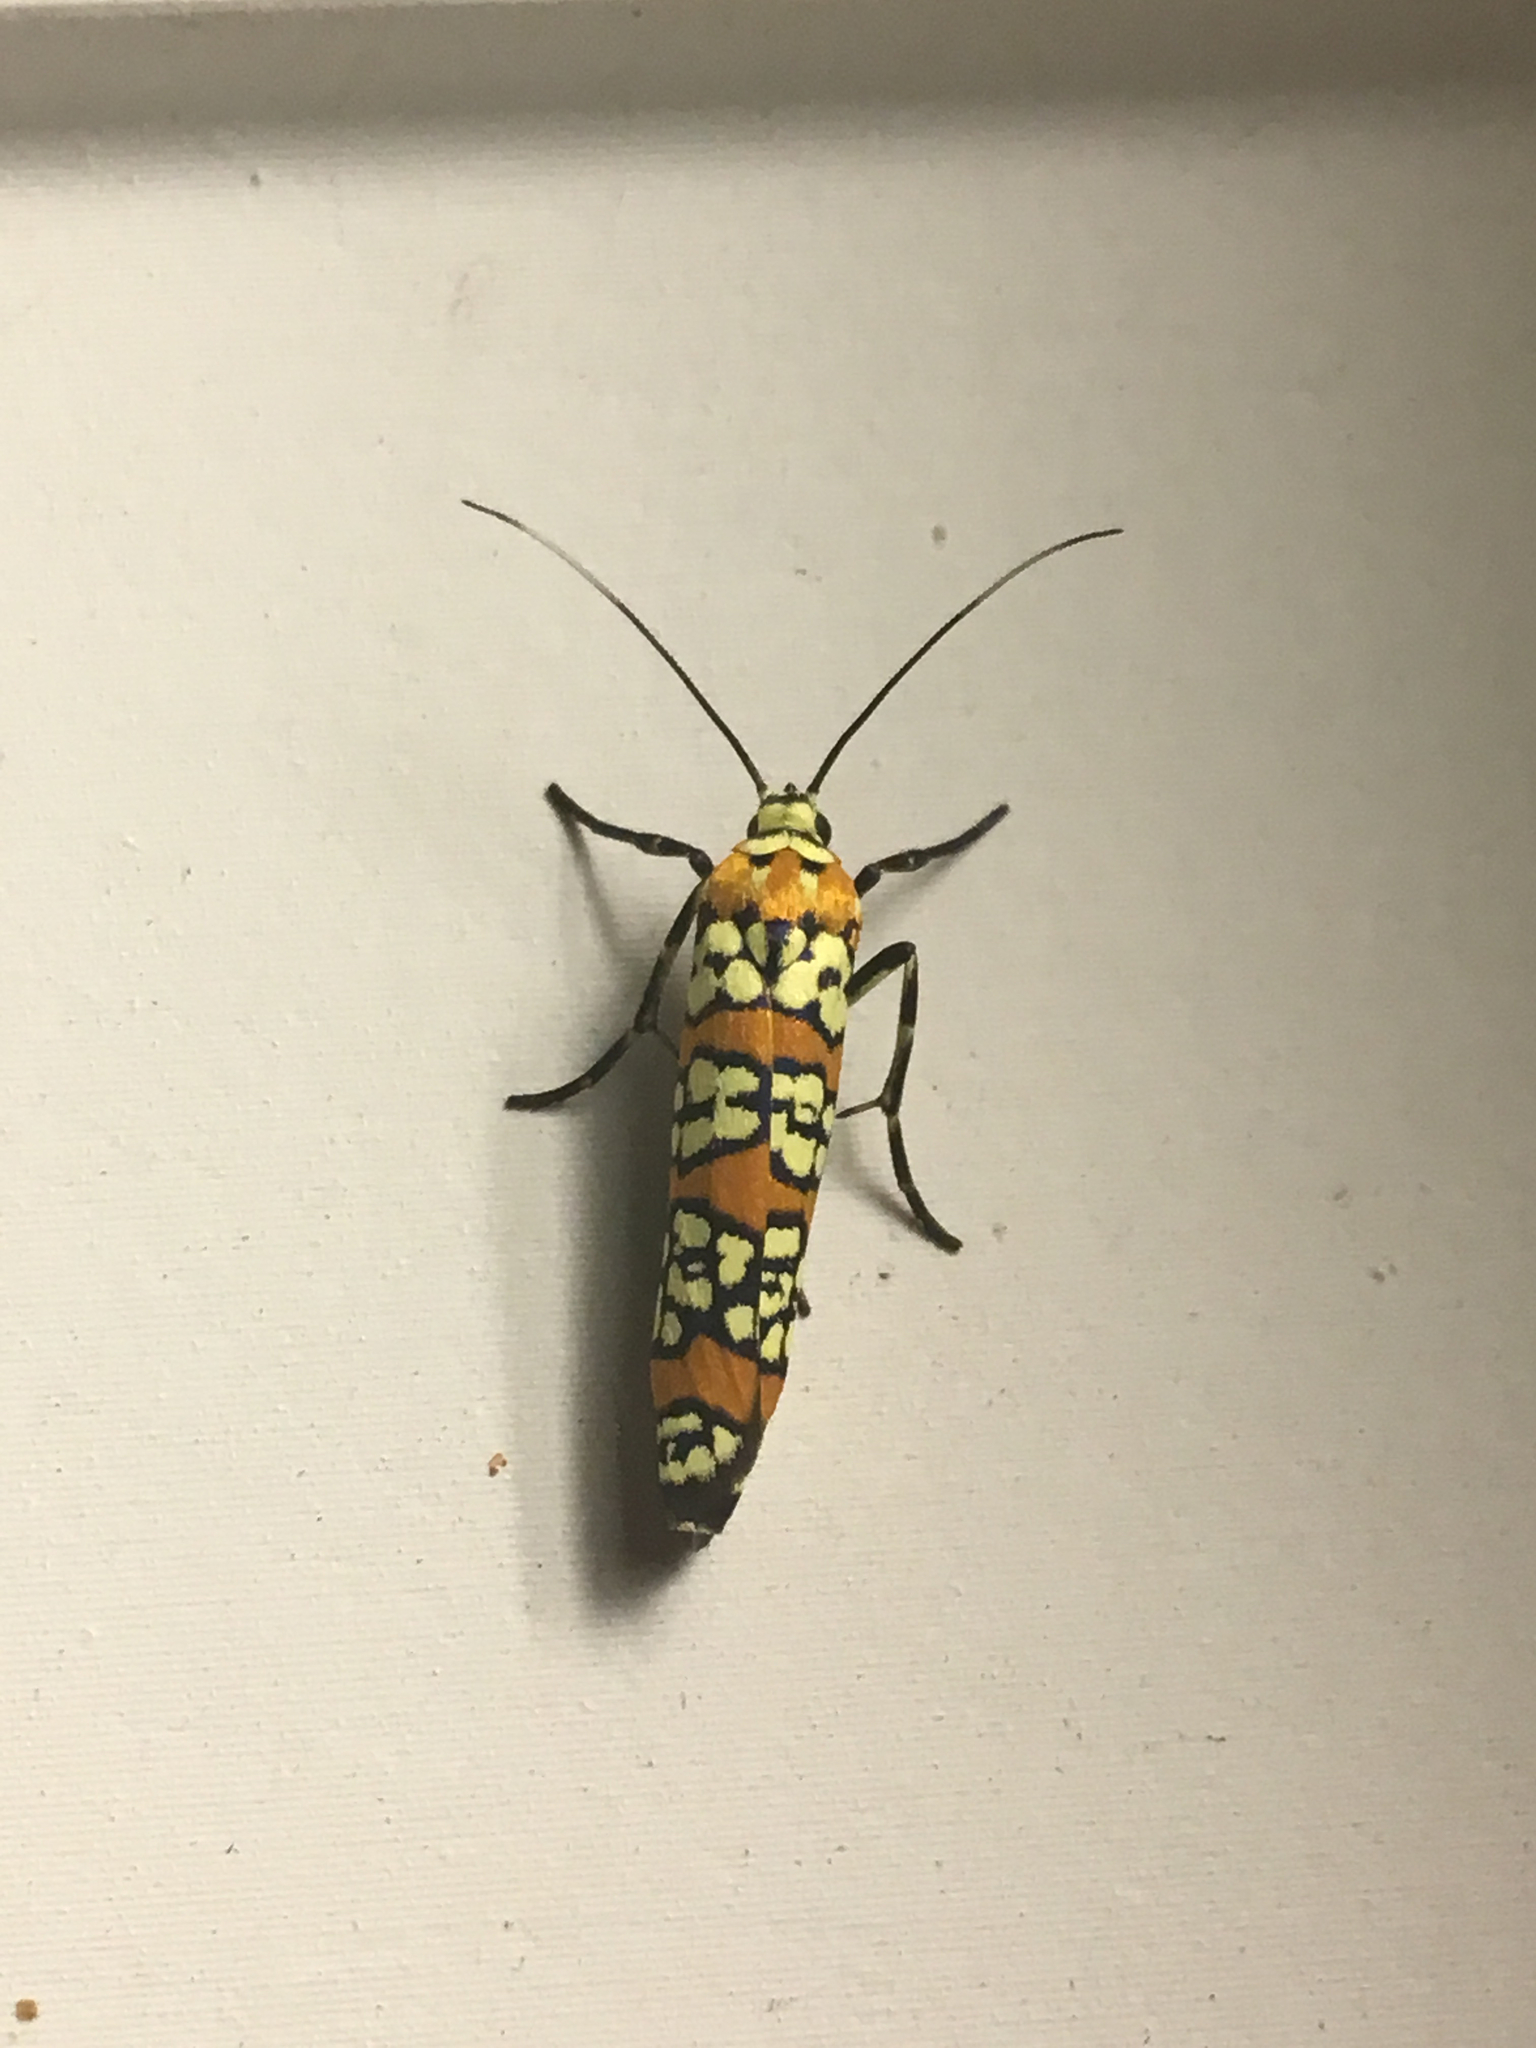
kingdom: Animalia
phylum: Arthropoda
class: Insecta
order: Lepidoptera
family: Attevidae
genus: Atteva
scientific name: Atteva punctella
